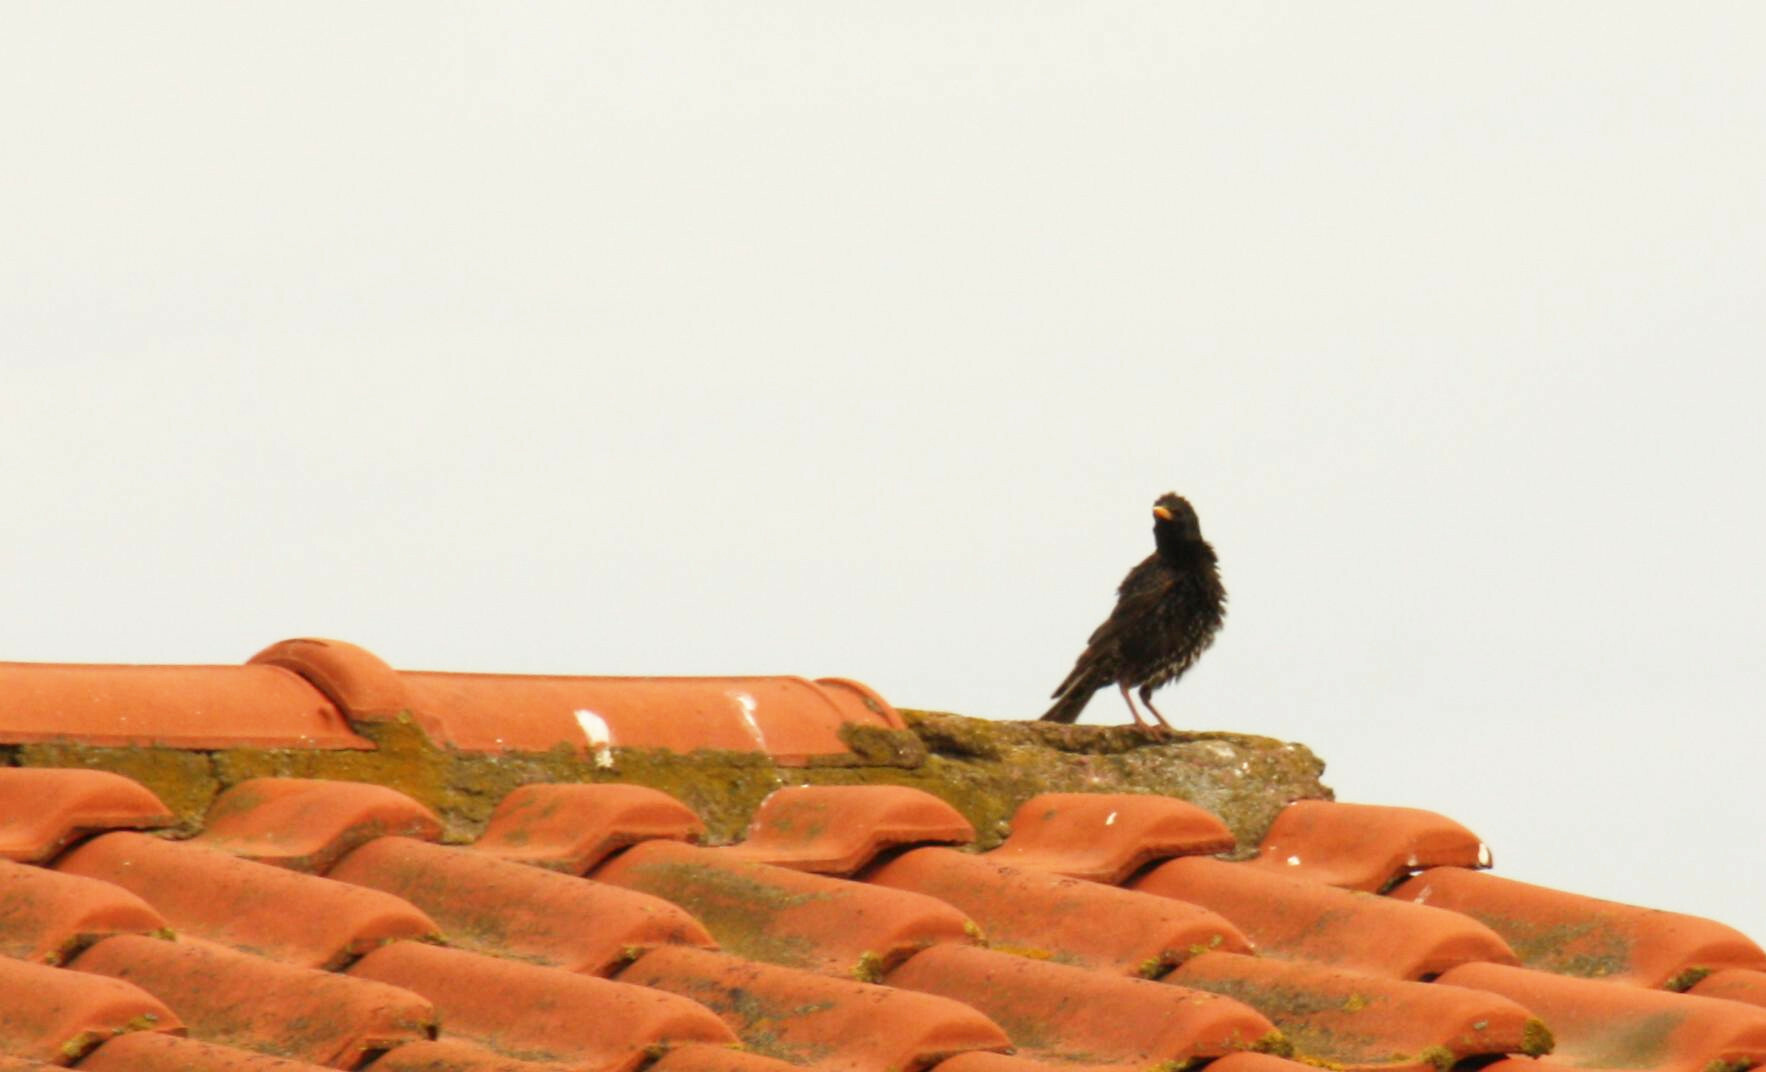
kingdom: Animalia
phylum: Chordata
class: Aves
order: Passeriformes
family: Sturnidae
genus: Sturnus
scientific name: Sturnus vulgaris
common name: Common starling
